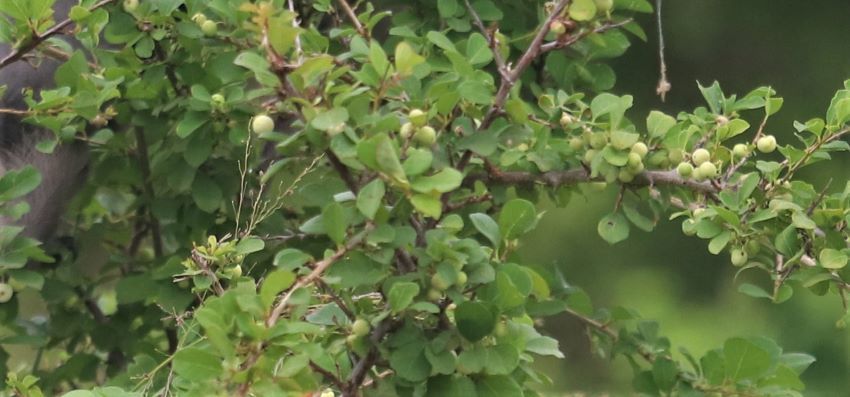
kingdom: Plantae
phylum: Tracheophyta
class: Magnoliopsida
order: Malpighiales
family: Phyllanthaceae
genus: Flueggea
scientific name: Flueggea virosa
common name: Common bushweed
